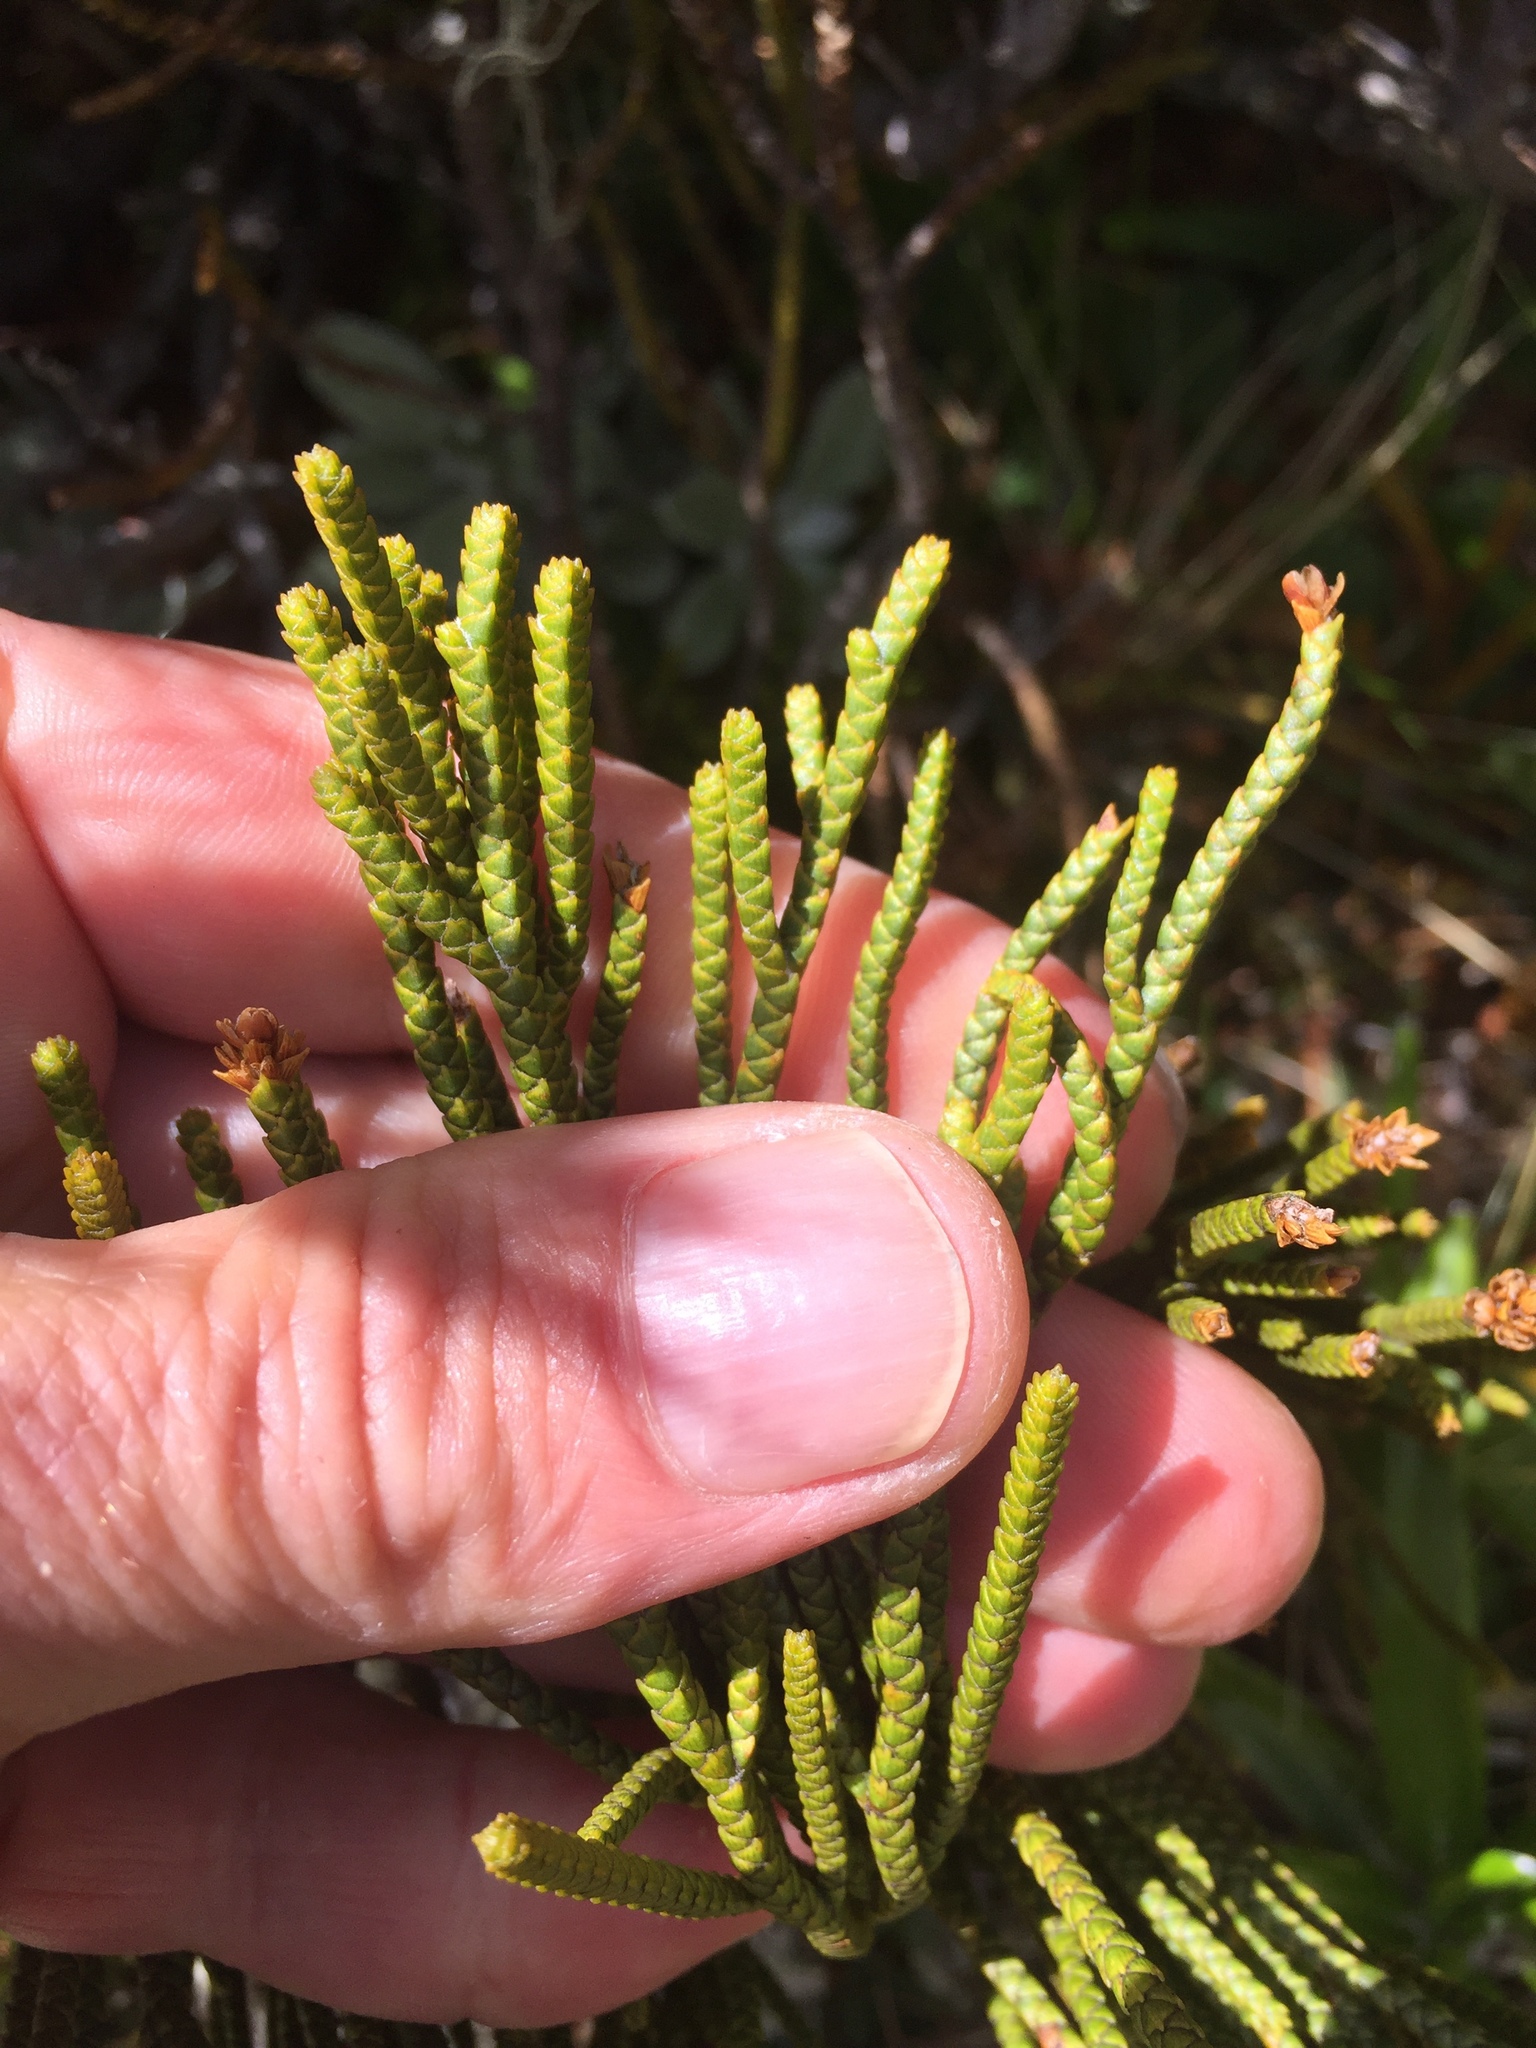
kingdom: Plantae
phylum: Tracheophyta
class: Magnoliopsida
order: Lamiales
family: Plantaginaceae
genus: Veronica
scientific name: Veronica lycopodioides
